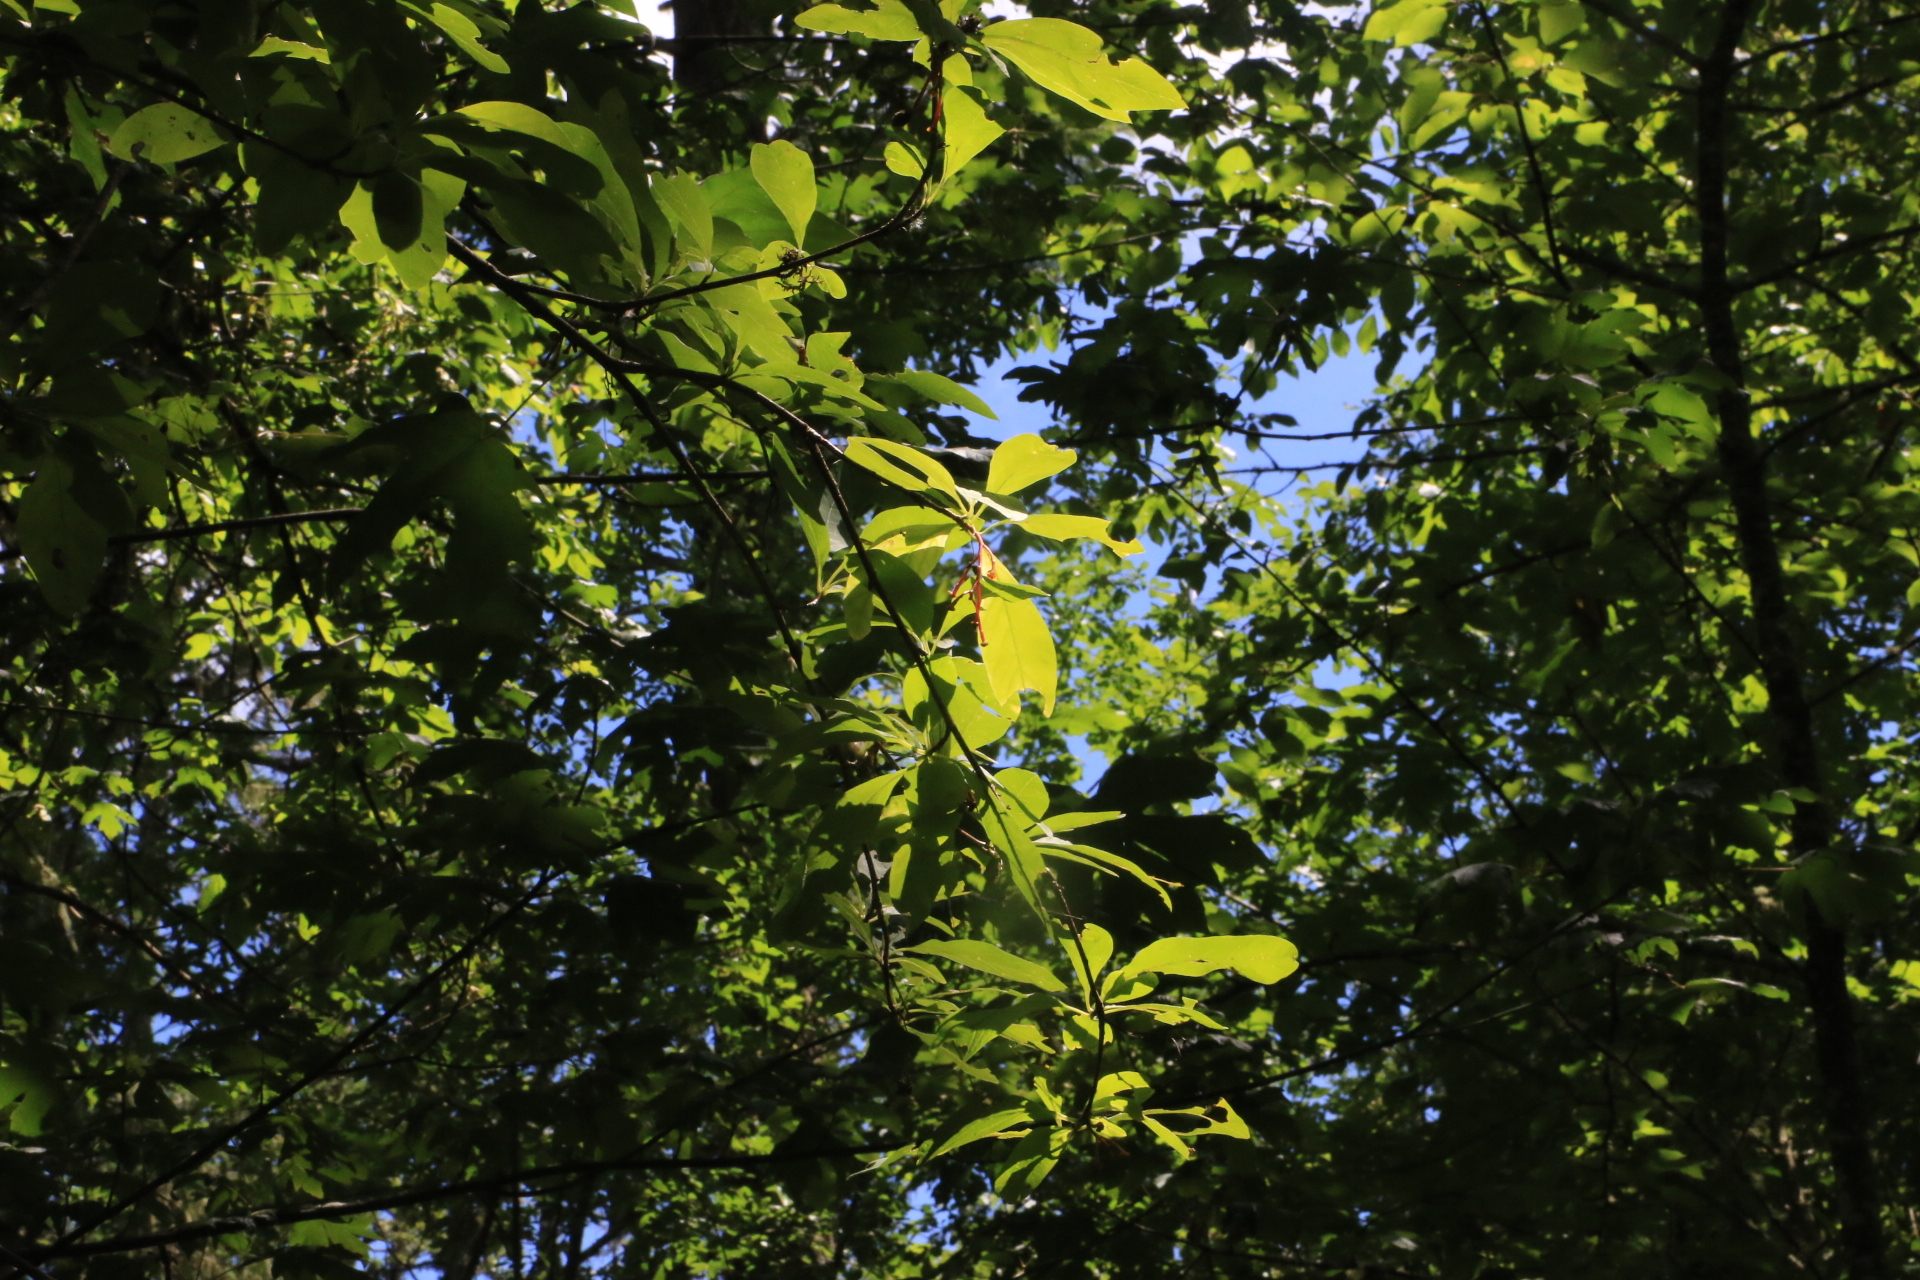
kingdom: Plantae
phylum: Tracheophyta
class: Magnoliopsida
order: Rosales
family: Rosaceae
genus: Oemleria
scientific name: Oemleria cerasiformis
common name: Osoberry
